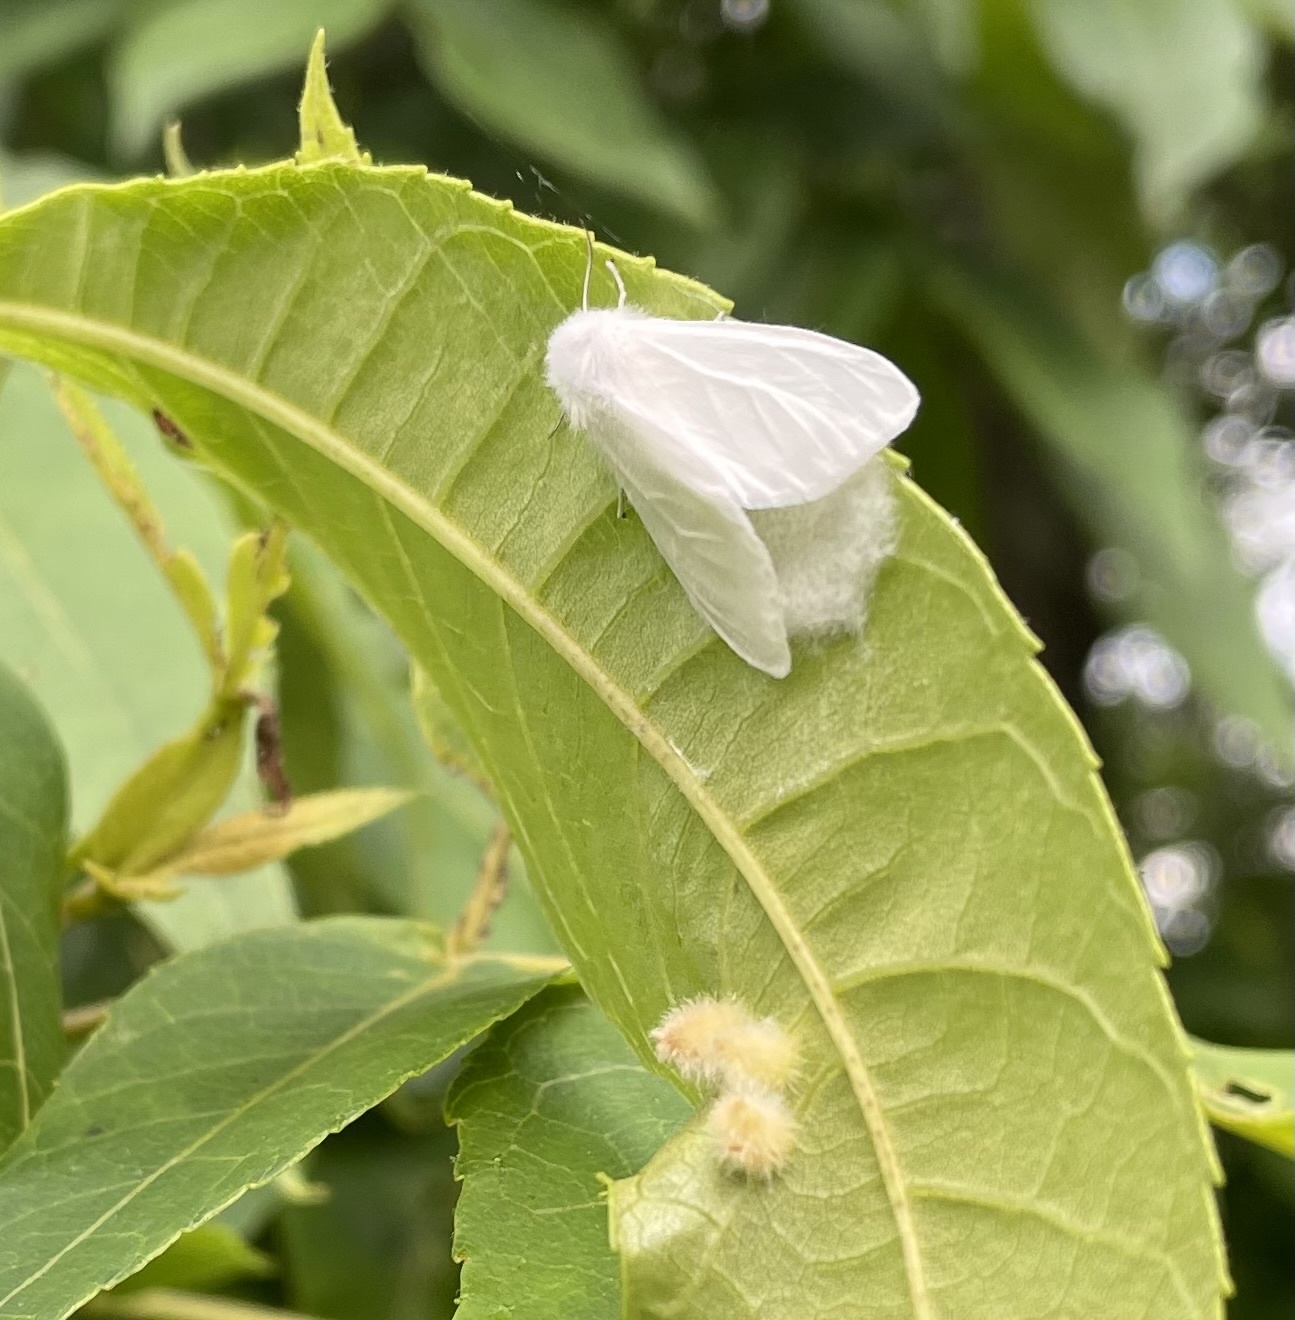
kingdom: Animalia
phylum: Arthropoda
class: Insecta
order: Lepidoptera
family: Erebidae
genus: Hyphantria
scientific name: Hyphantria cunea
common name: American white moth
